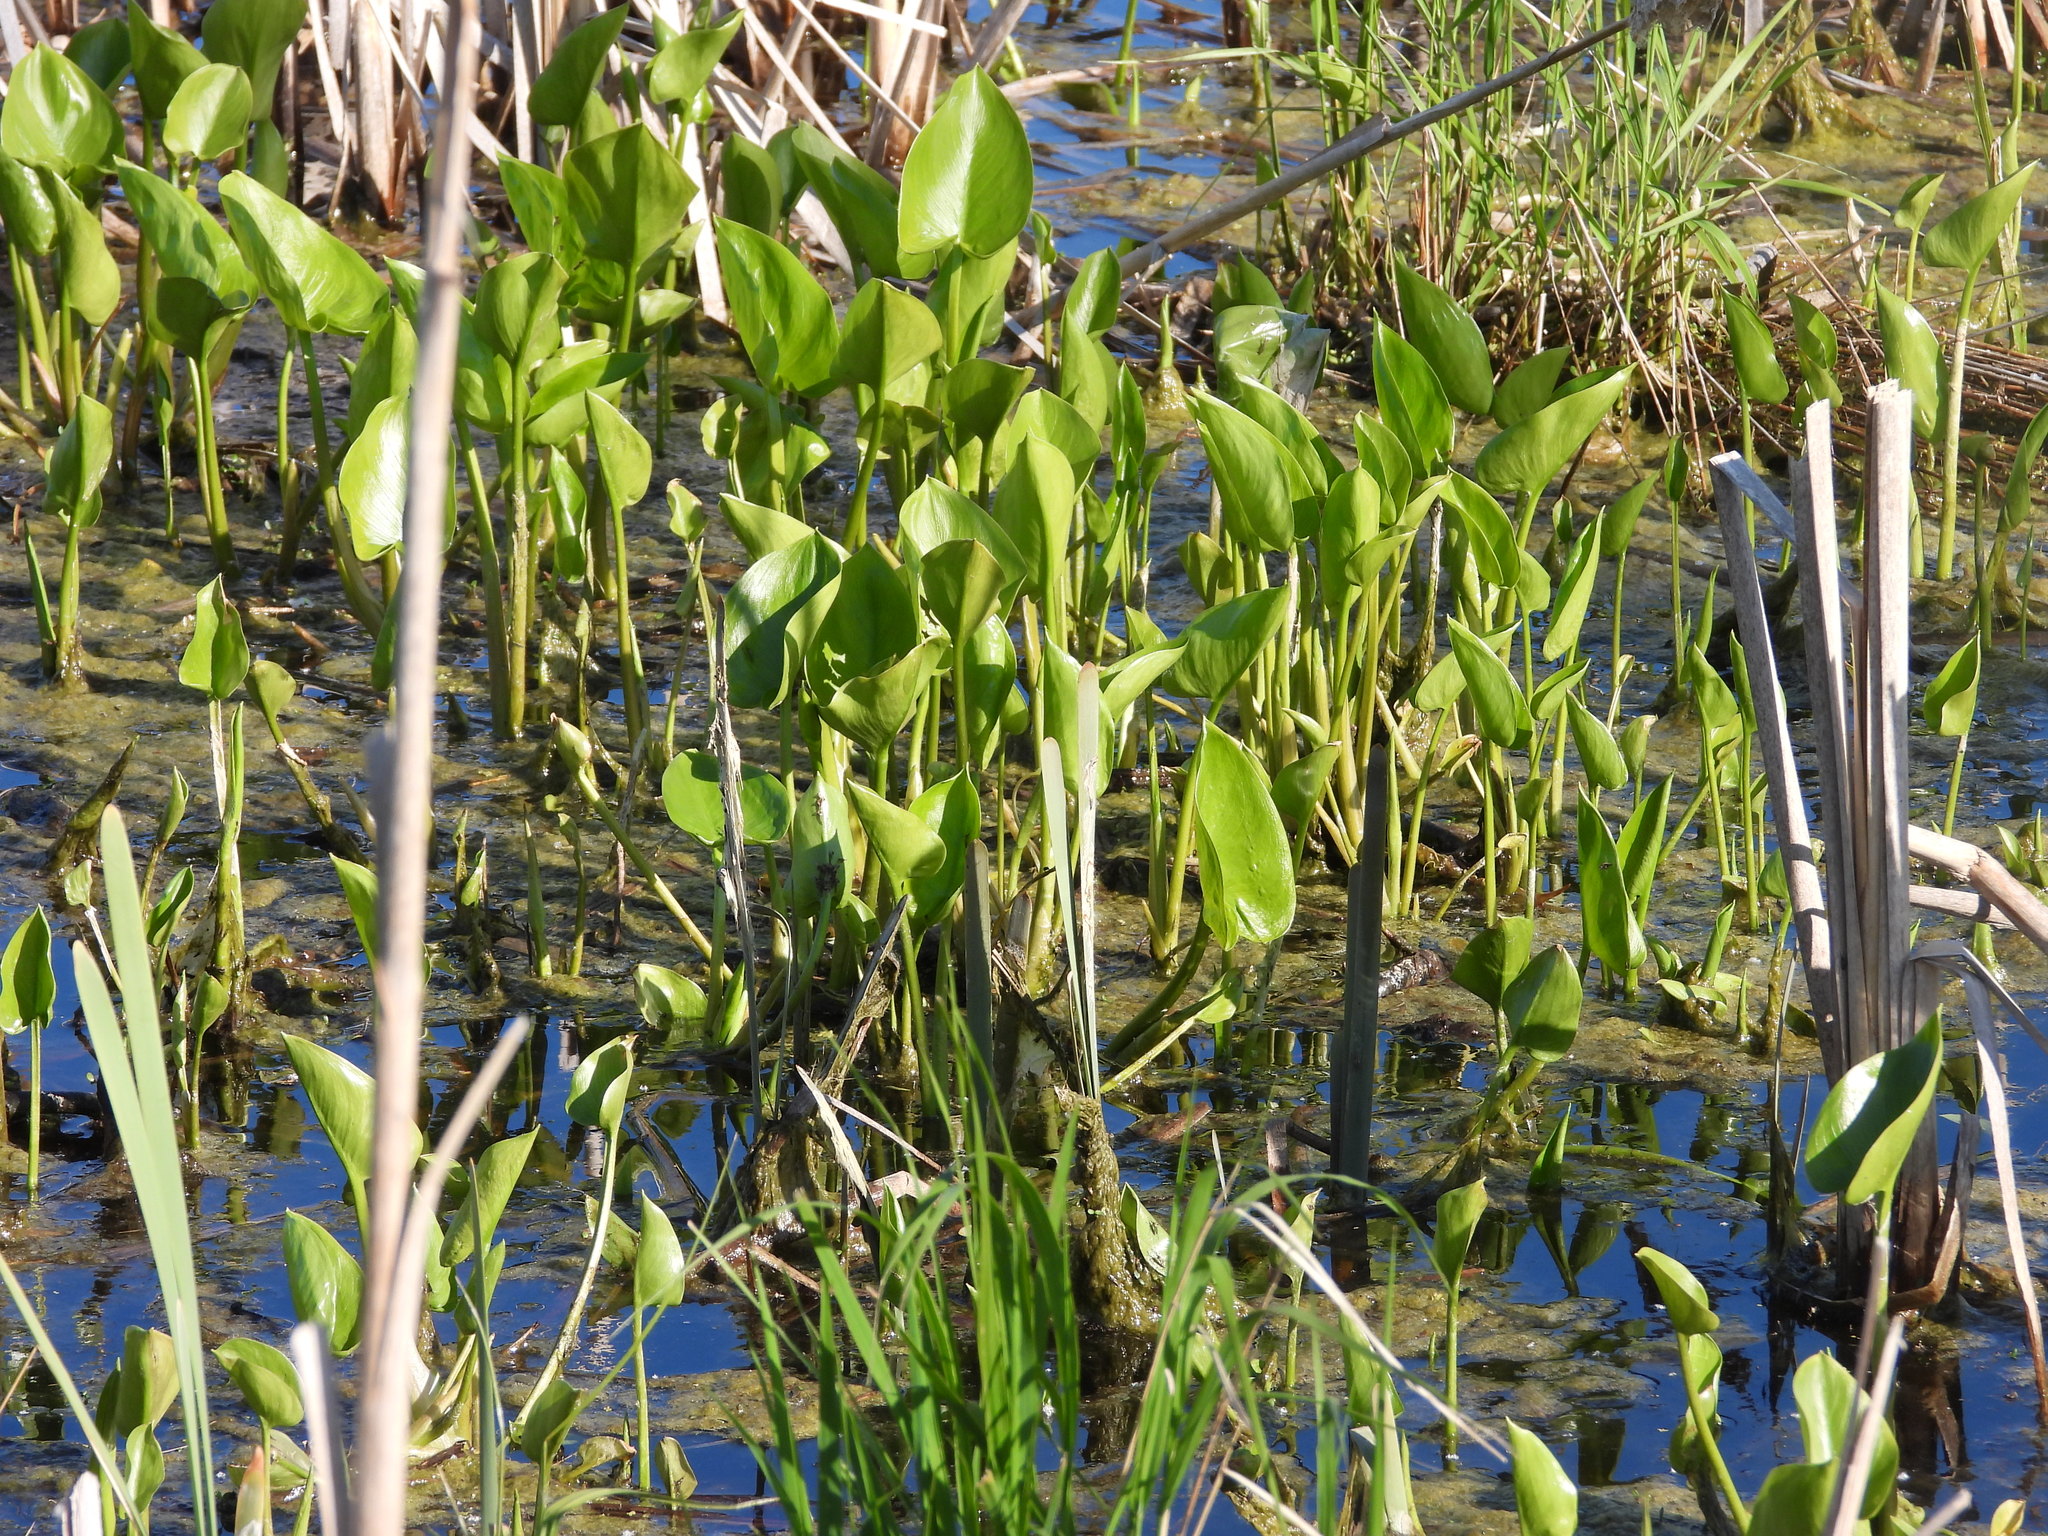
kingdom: Plantae
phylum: Tracheophyta
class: Liliopsida
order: Alismatales
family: Araceae
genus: Calla
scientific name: Calla palustris
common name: Bog arum
